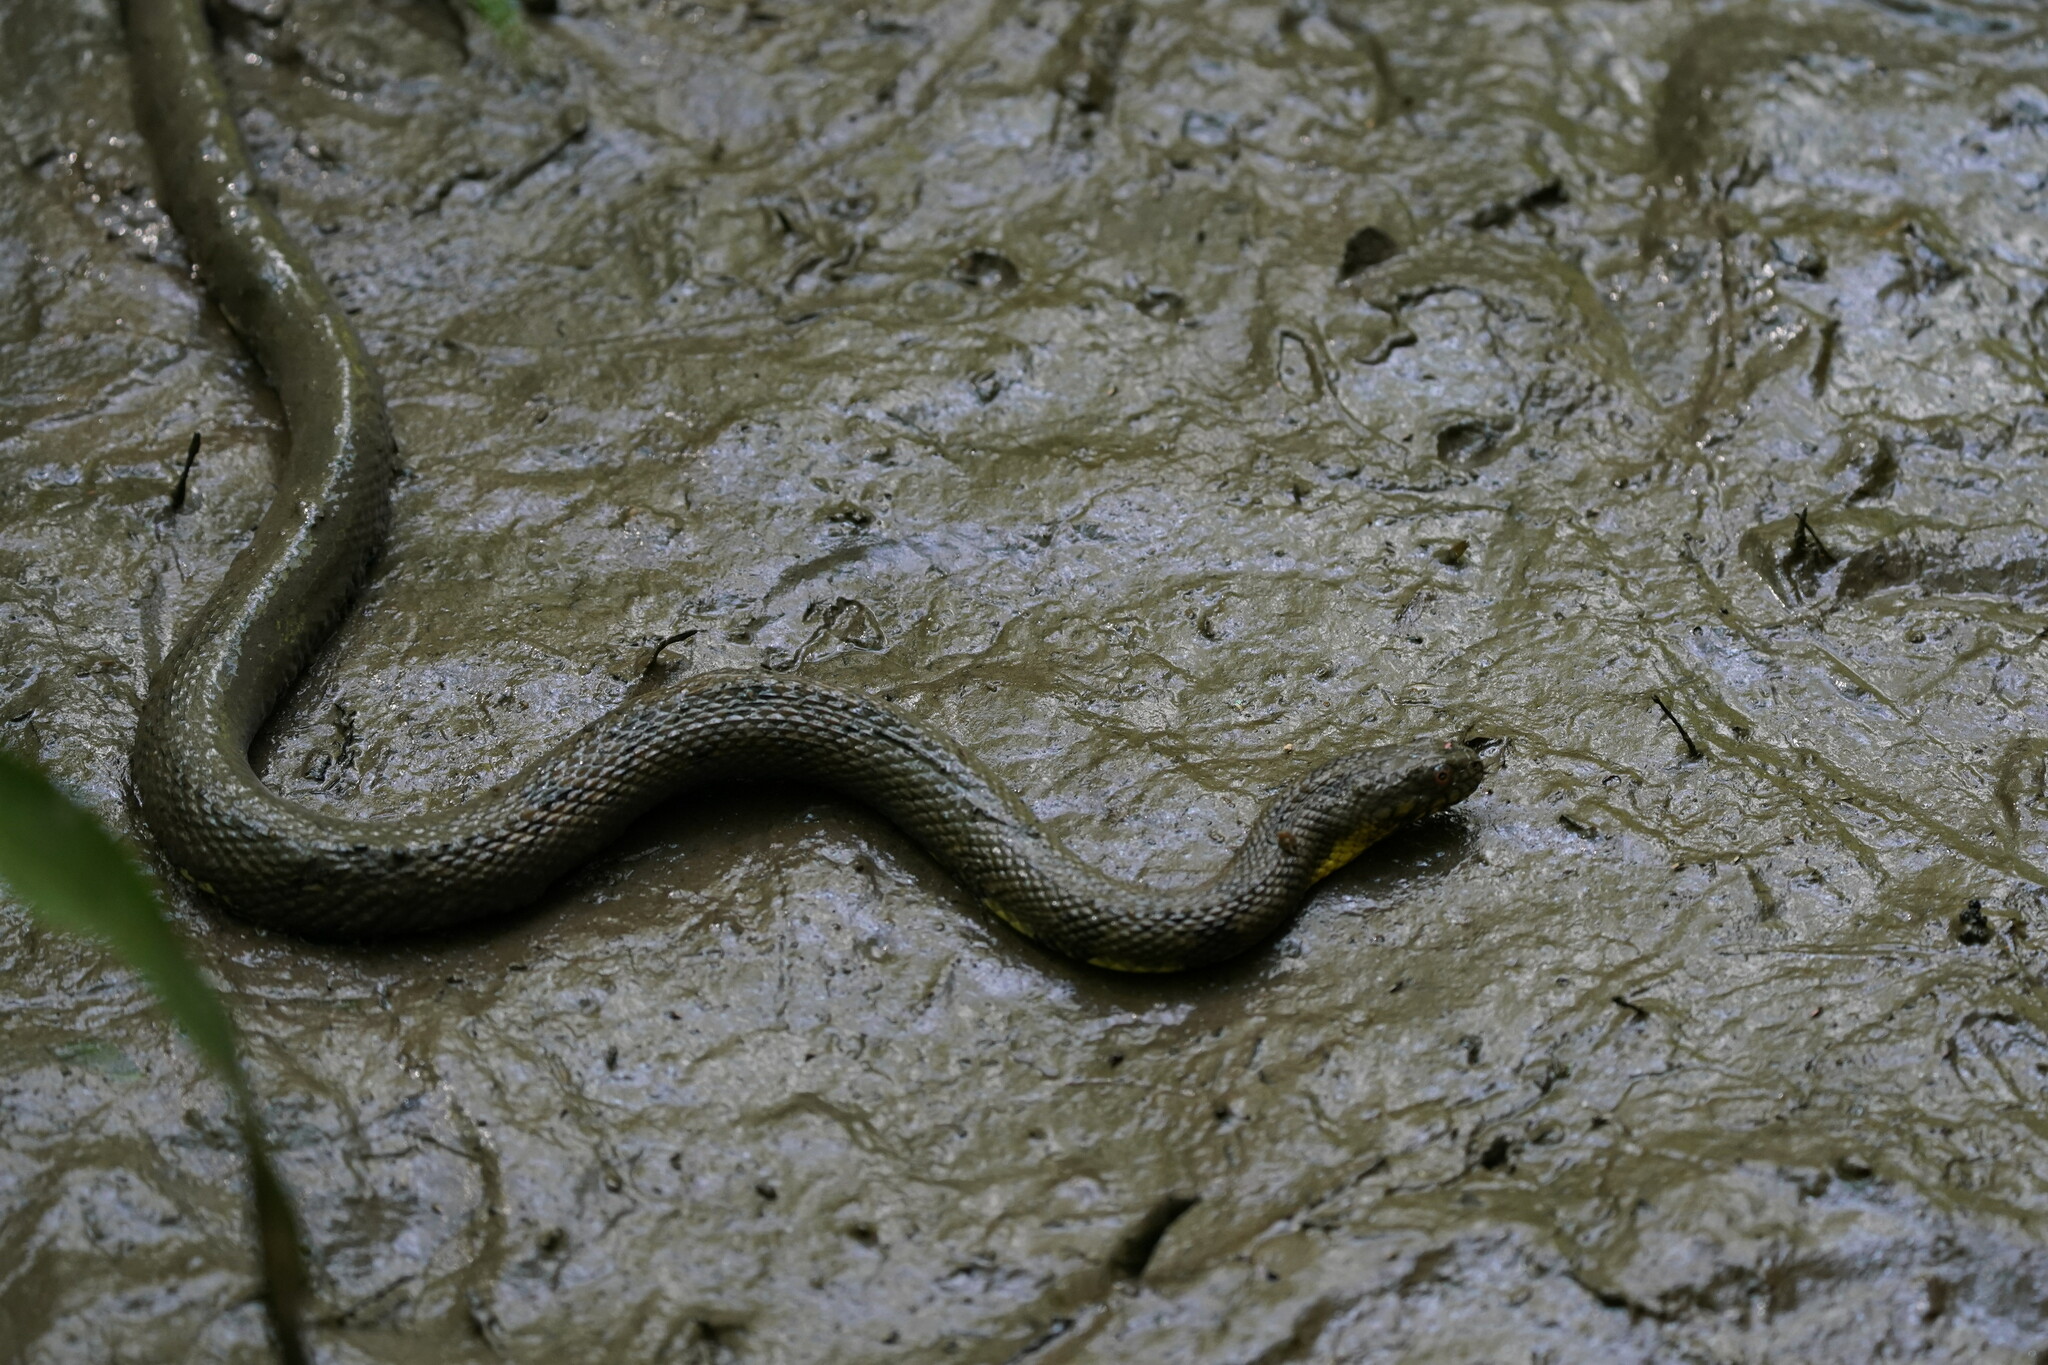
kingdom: Animalia
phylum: Chordata
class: Squamata
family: Colubridae
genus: Nerodia
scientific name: Nerodia rhombifer
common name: Diamondback water snake
